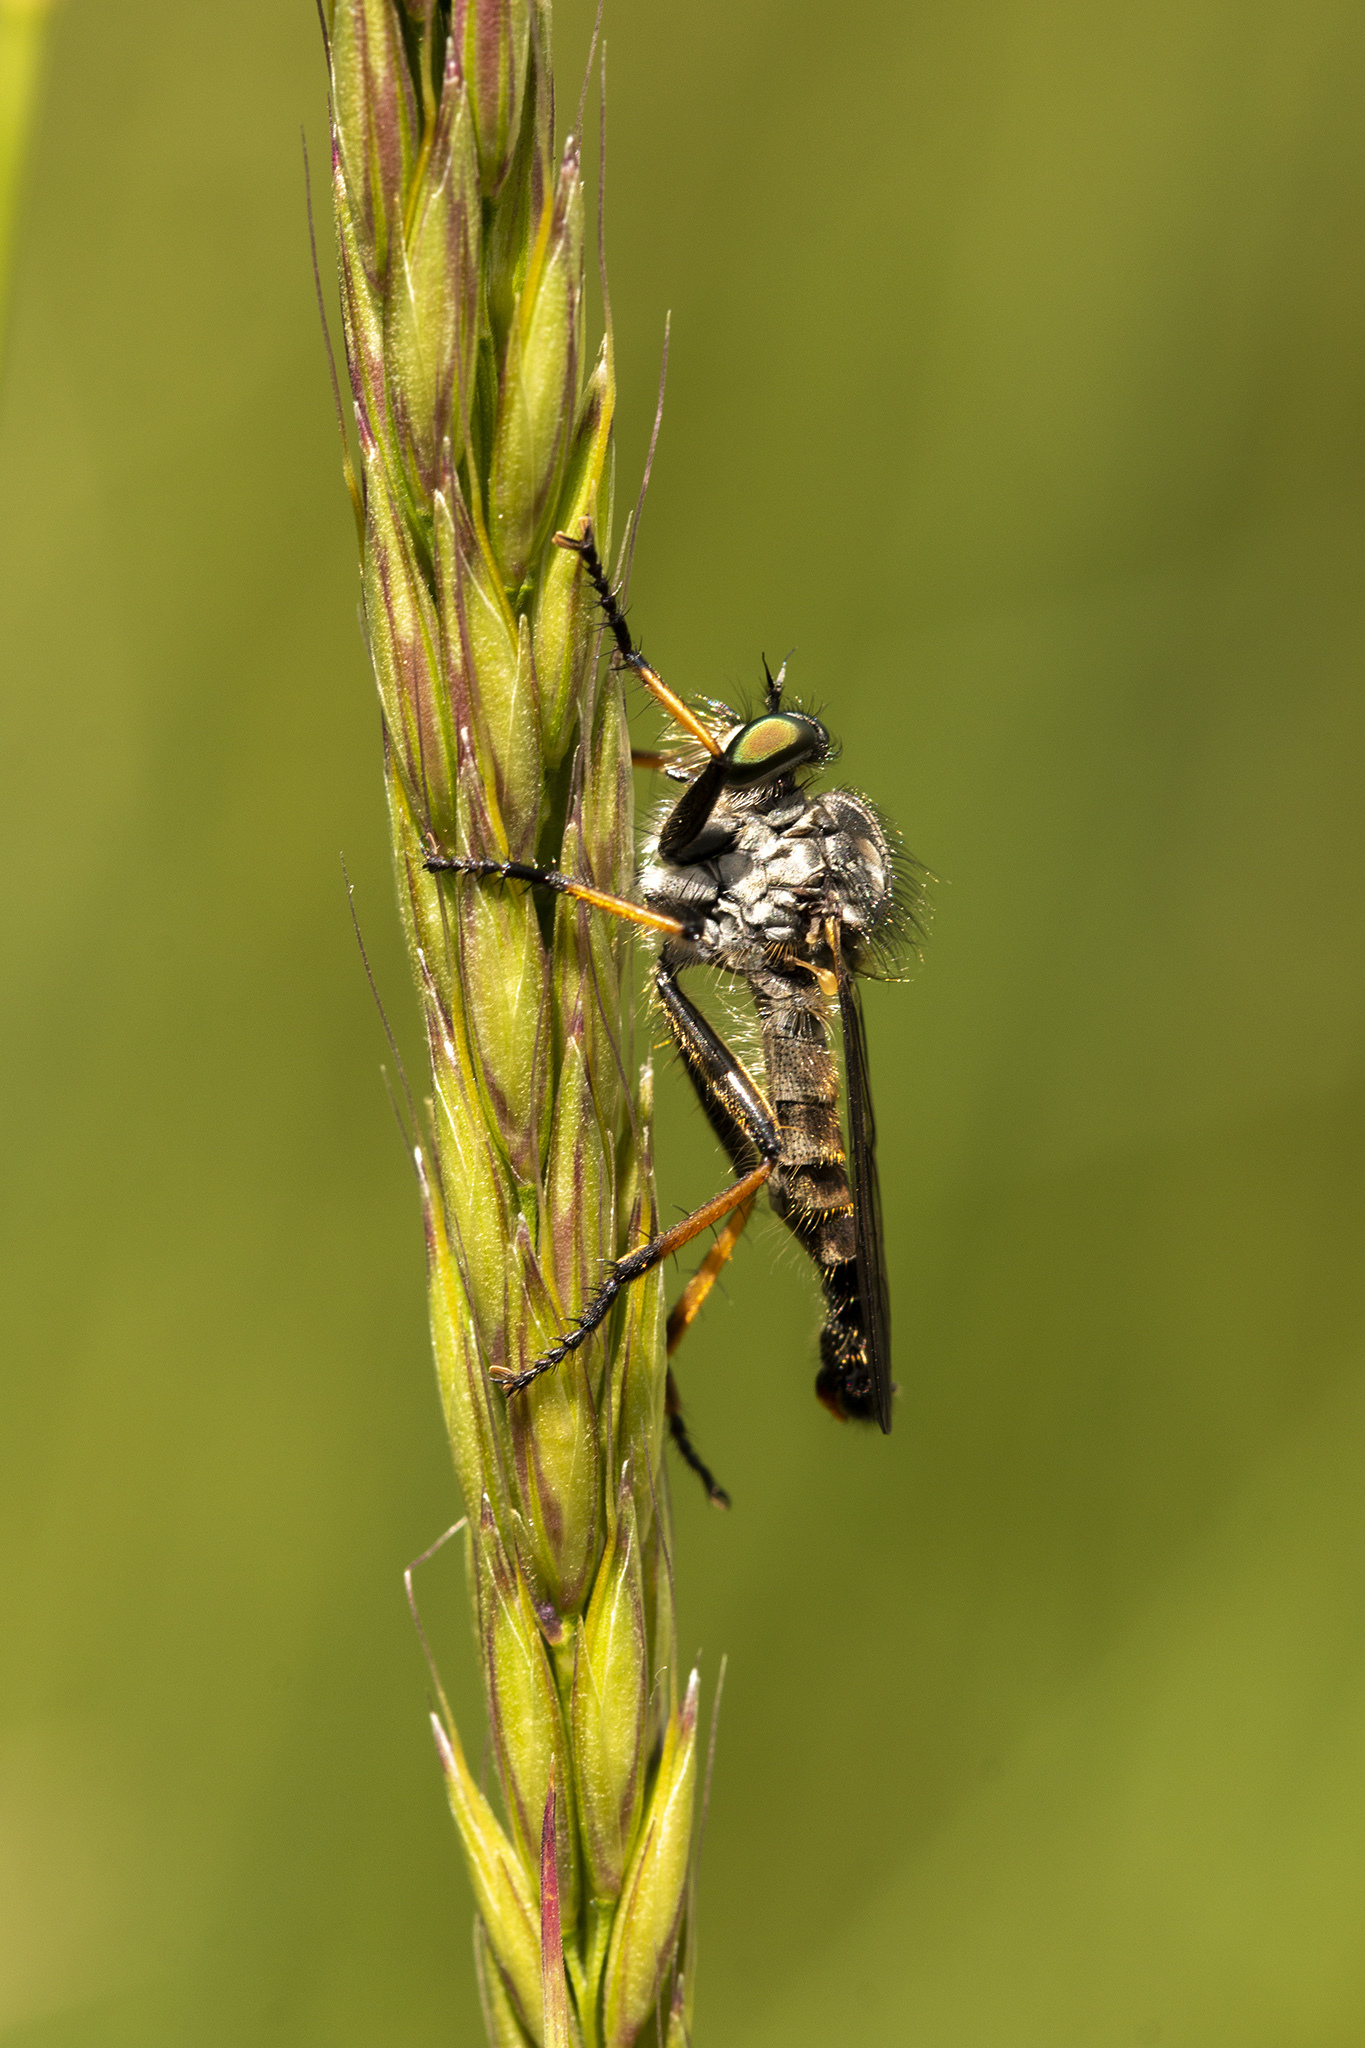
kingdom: Animalia
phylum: Arthropoda
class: Insecta
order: Diptera
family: Asilidae
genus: Neoitamus
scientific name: Neoitamus cyanurus
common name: Common awl robberfly
